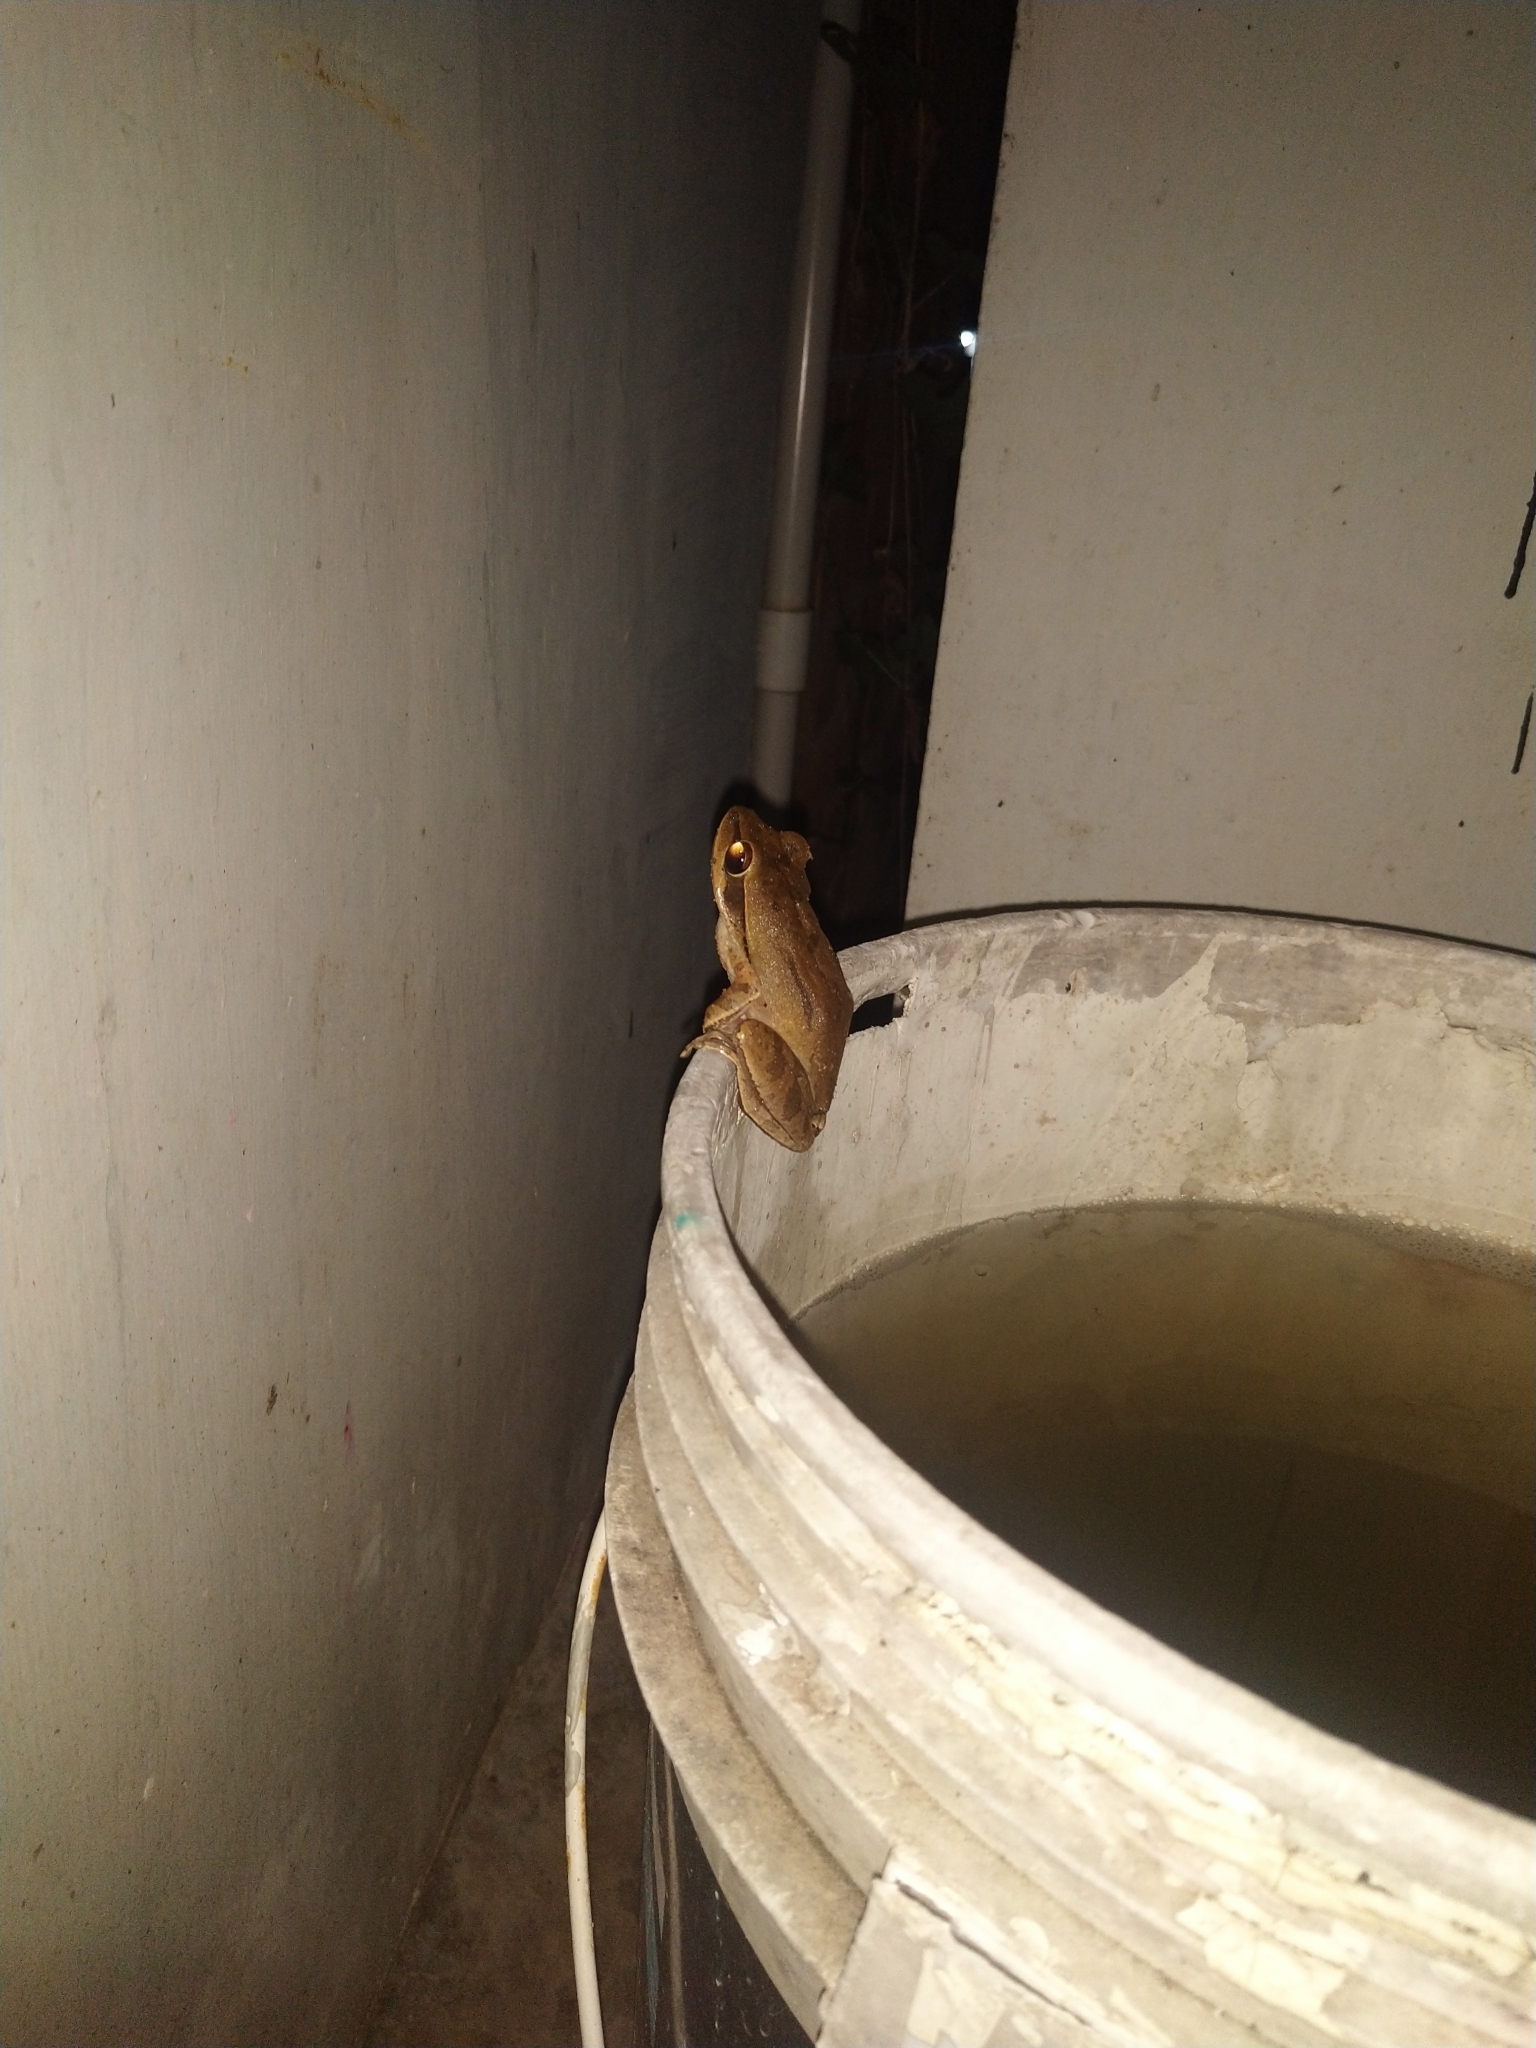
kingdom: Animalia
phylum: Chordata
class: Amphibia
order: Anura
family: Rhacophoridae
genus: Polypedates
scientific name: Polypedates maculatus
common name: Himalayan tree frog
